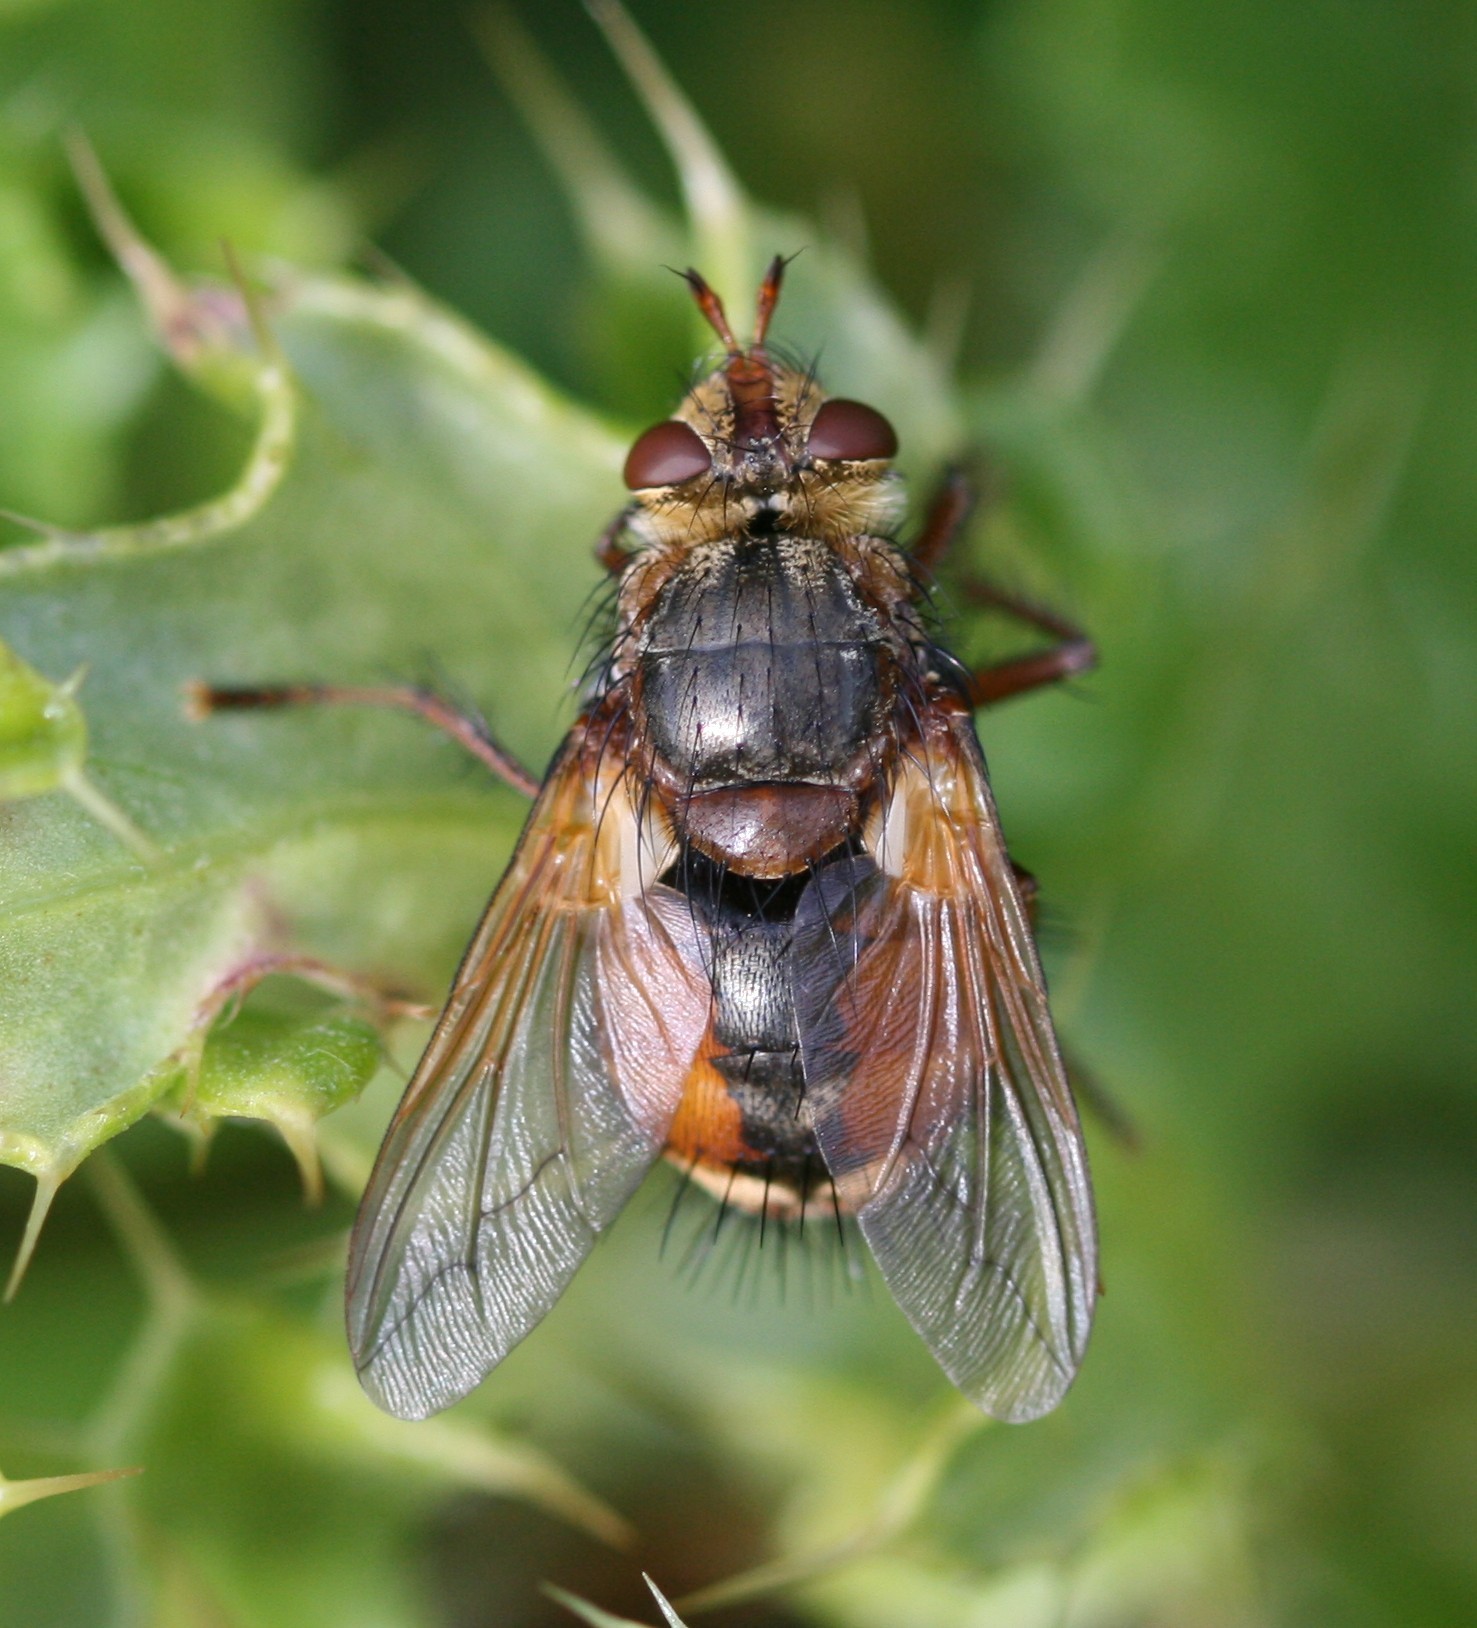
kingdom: Animalia
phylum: Arthropoda
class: Insecta
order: Diptera
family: Tachinidae
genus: Tachina
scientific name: Tachina fera
